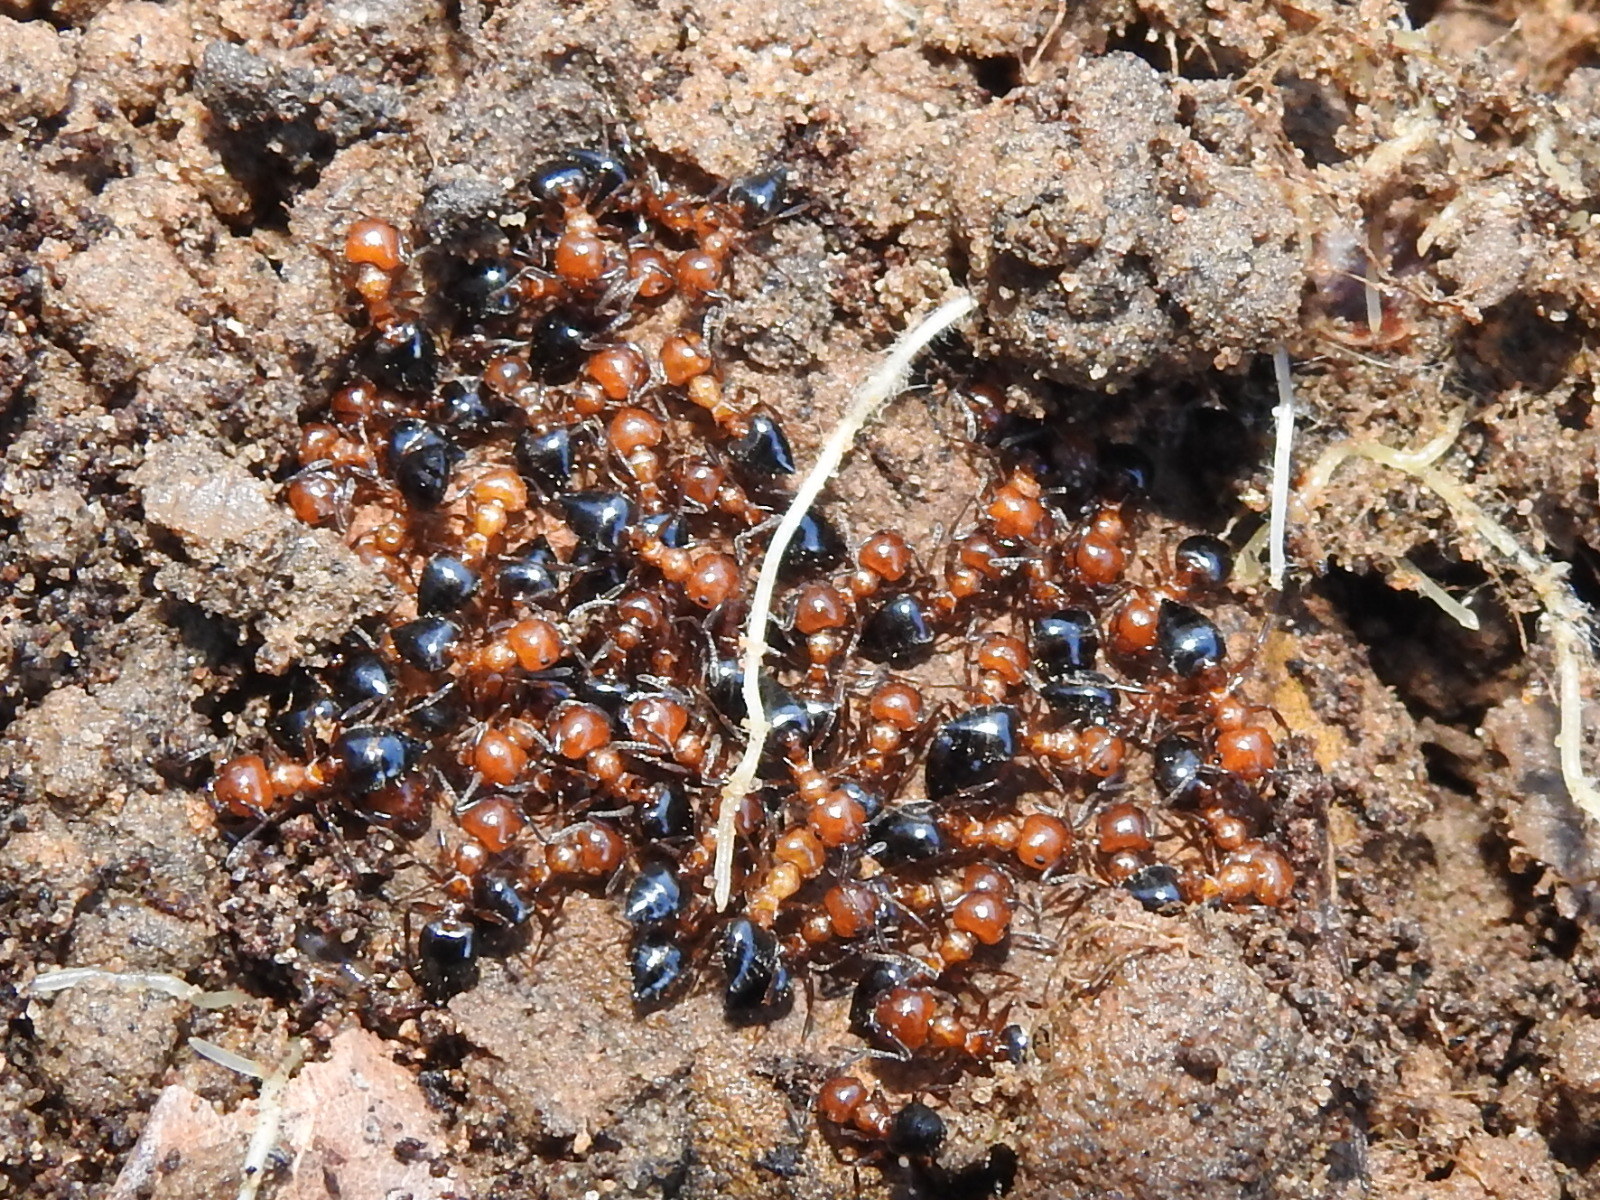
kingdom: Animalia
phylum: Arthropoda
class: Insecta
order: Hymenoptera
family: Formicidae
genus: Crematogaster
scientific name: Crematogaster laeviuscula
